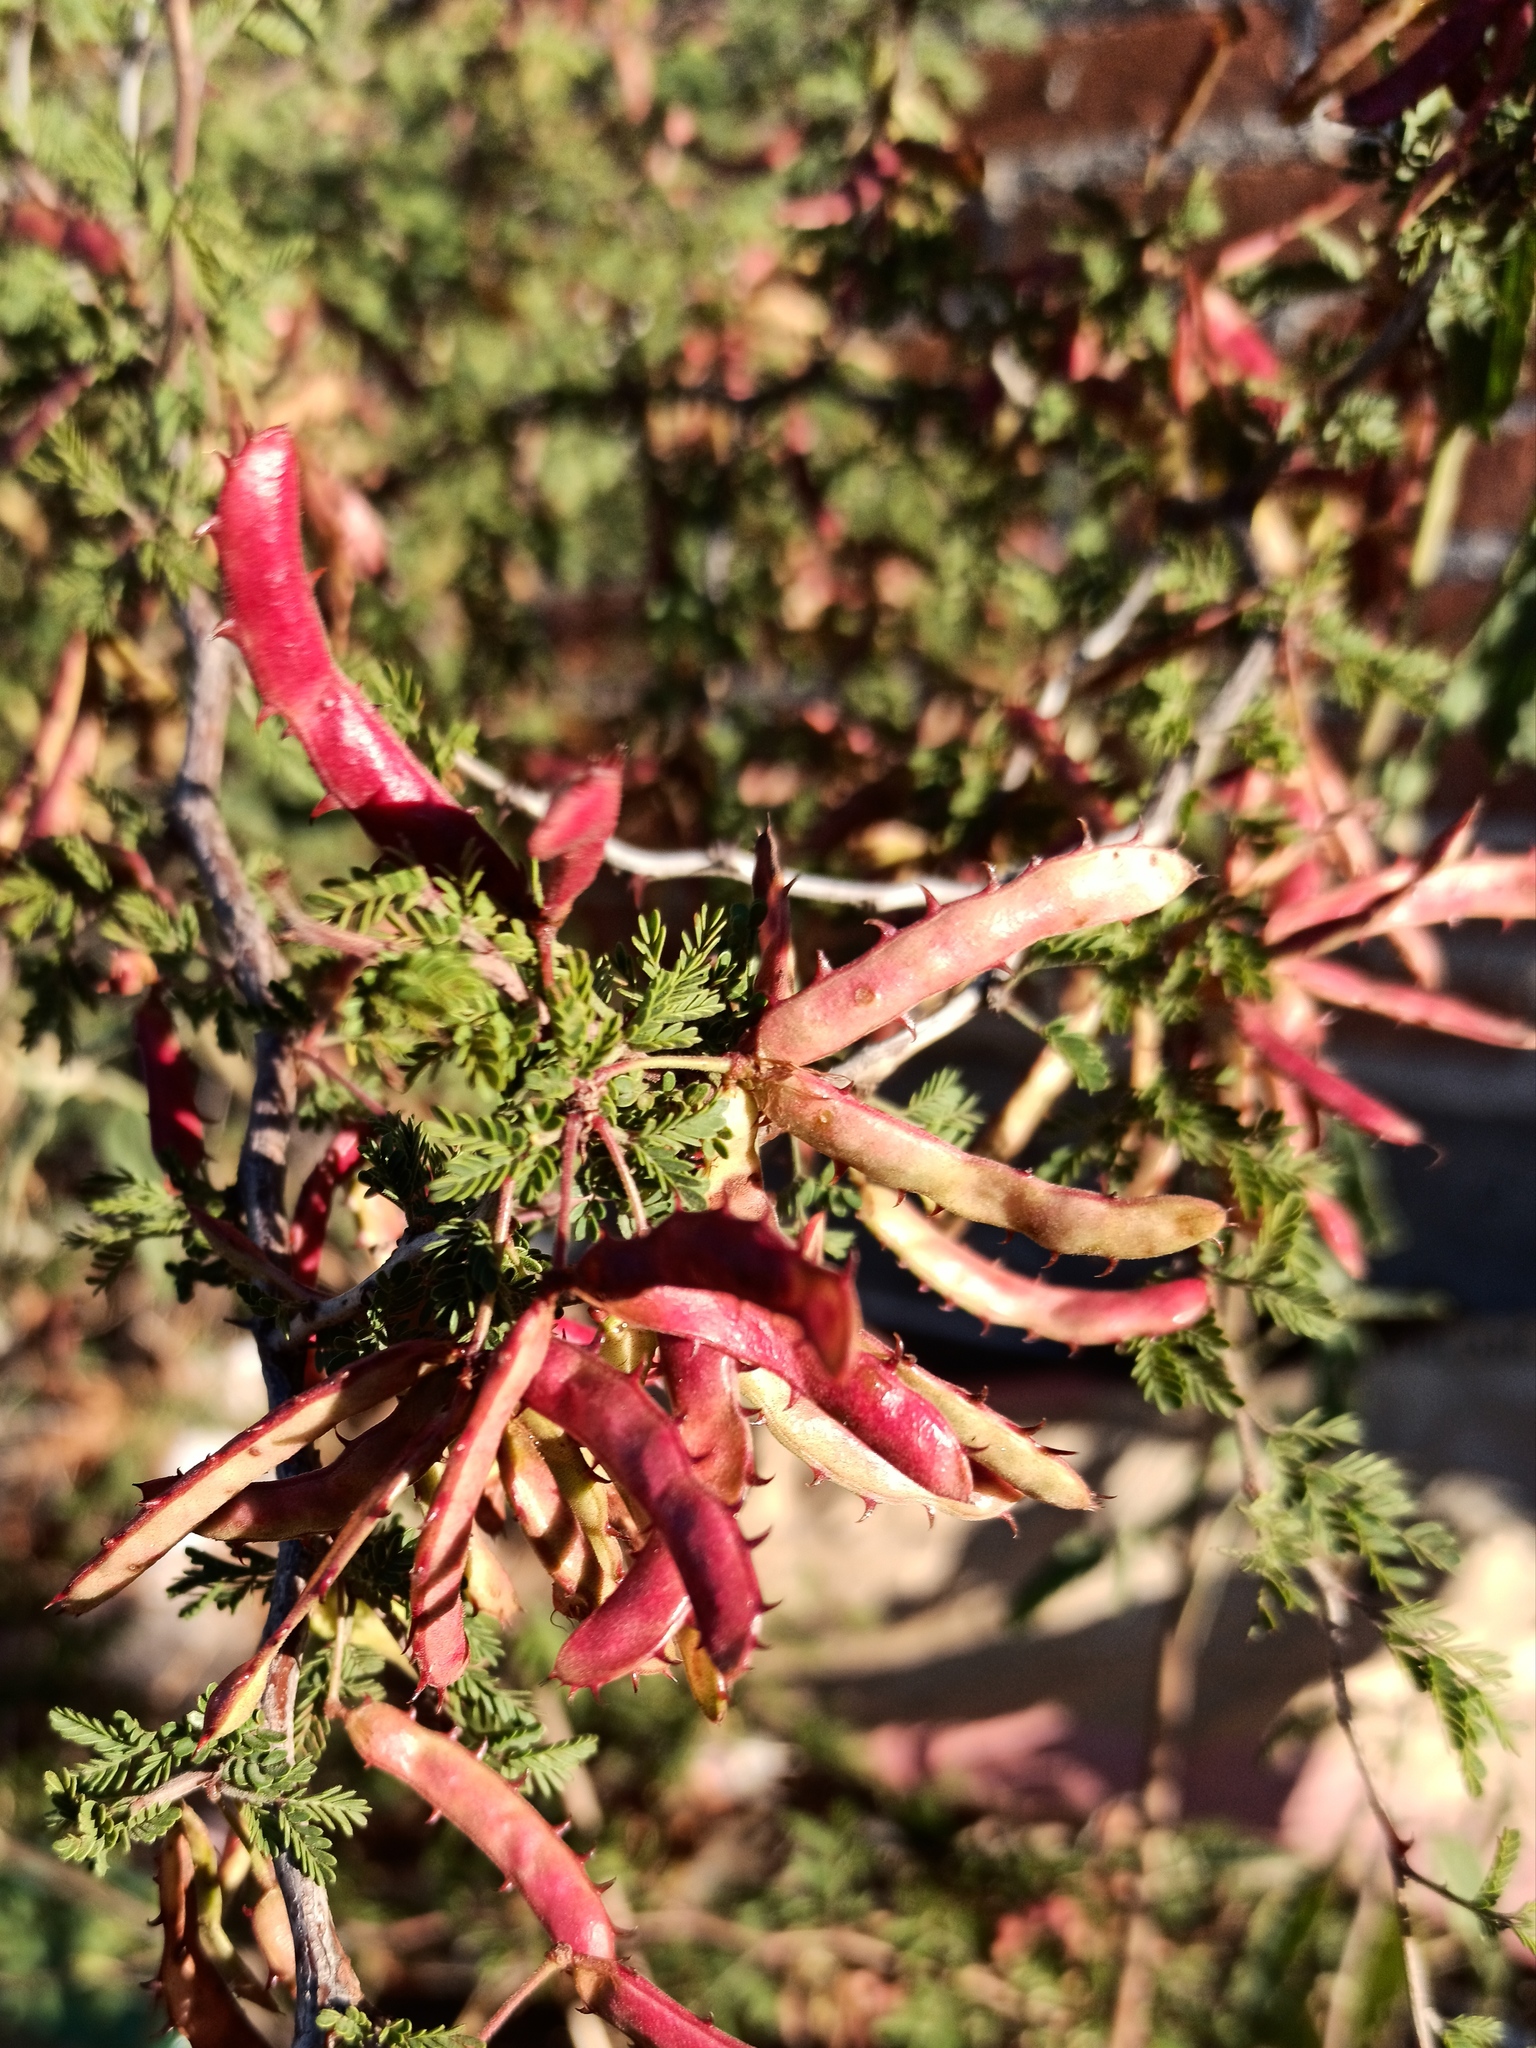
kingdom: Plantae
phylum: Tracheophyta
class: Magnoliopsida
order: Fabales
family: Fabaceae
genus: Mimosa
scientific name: Mimosa aculeaticarpa
